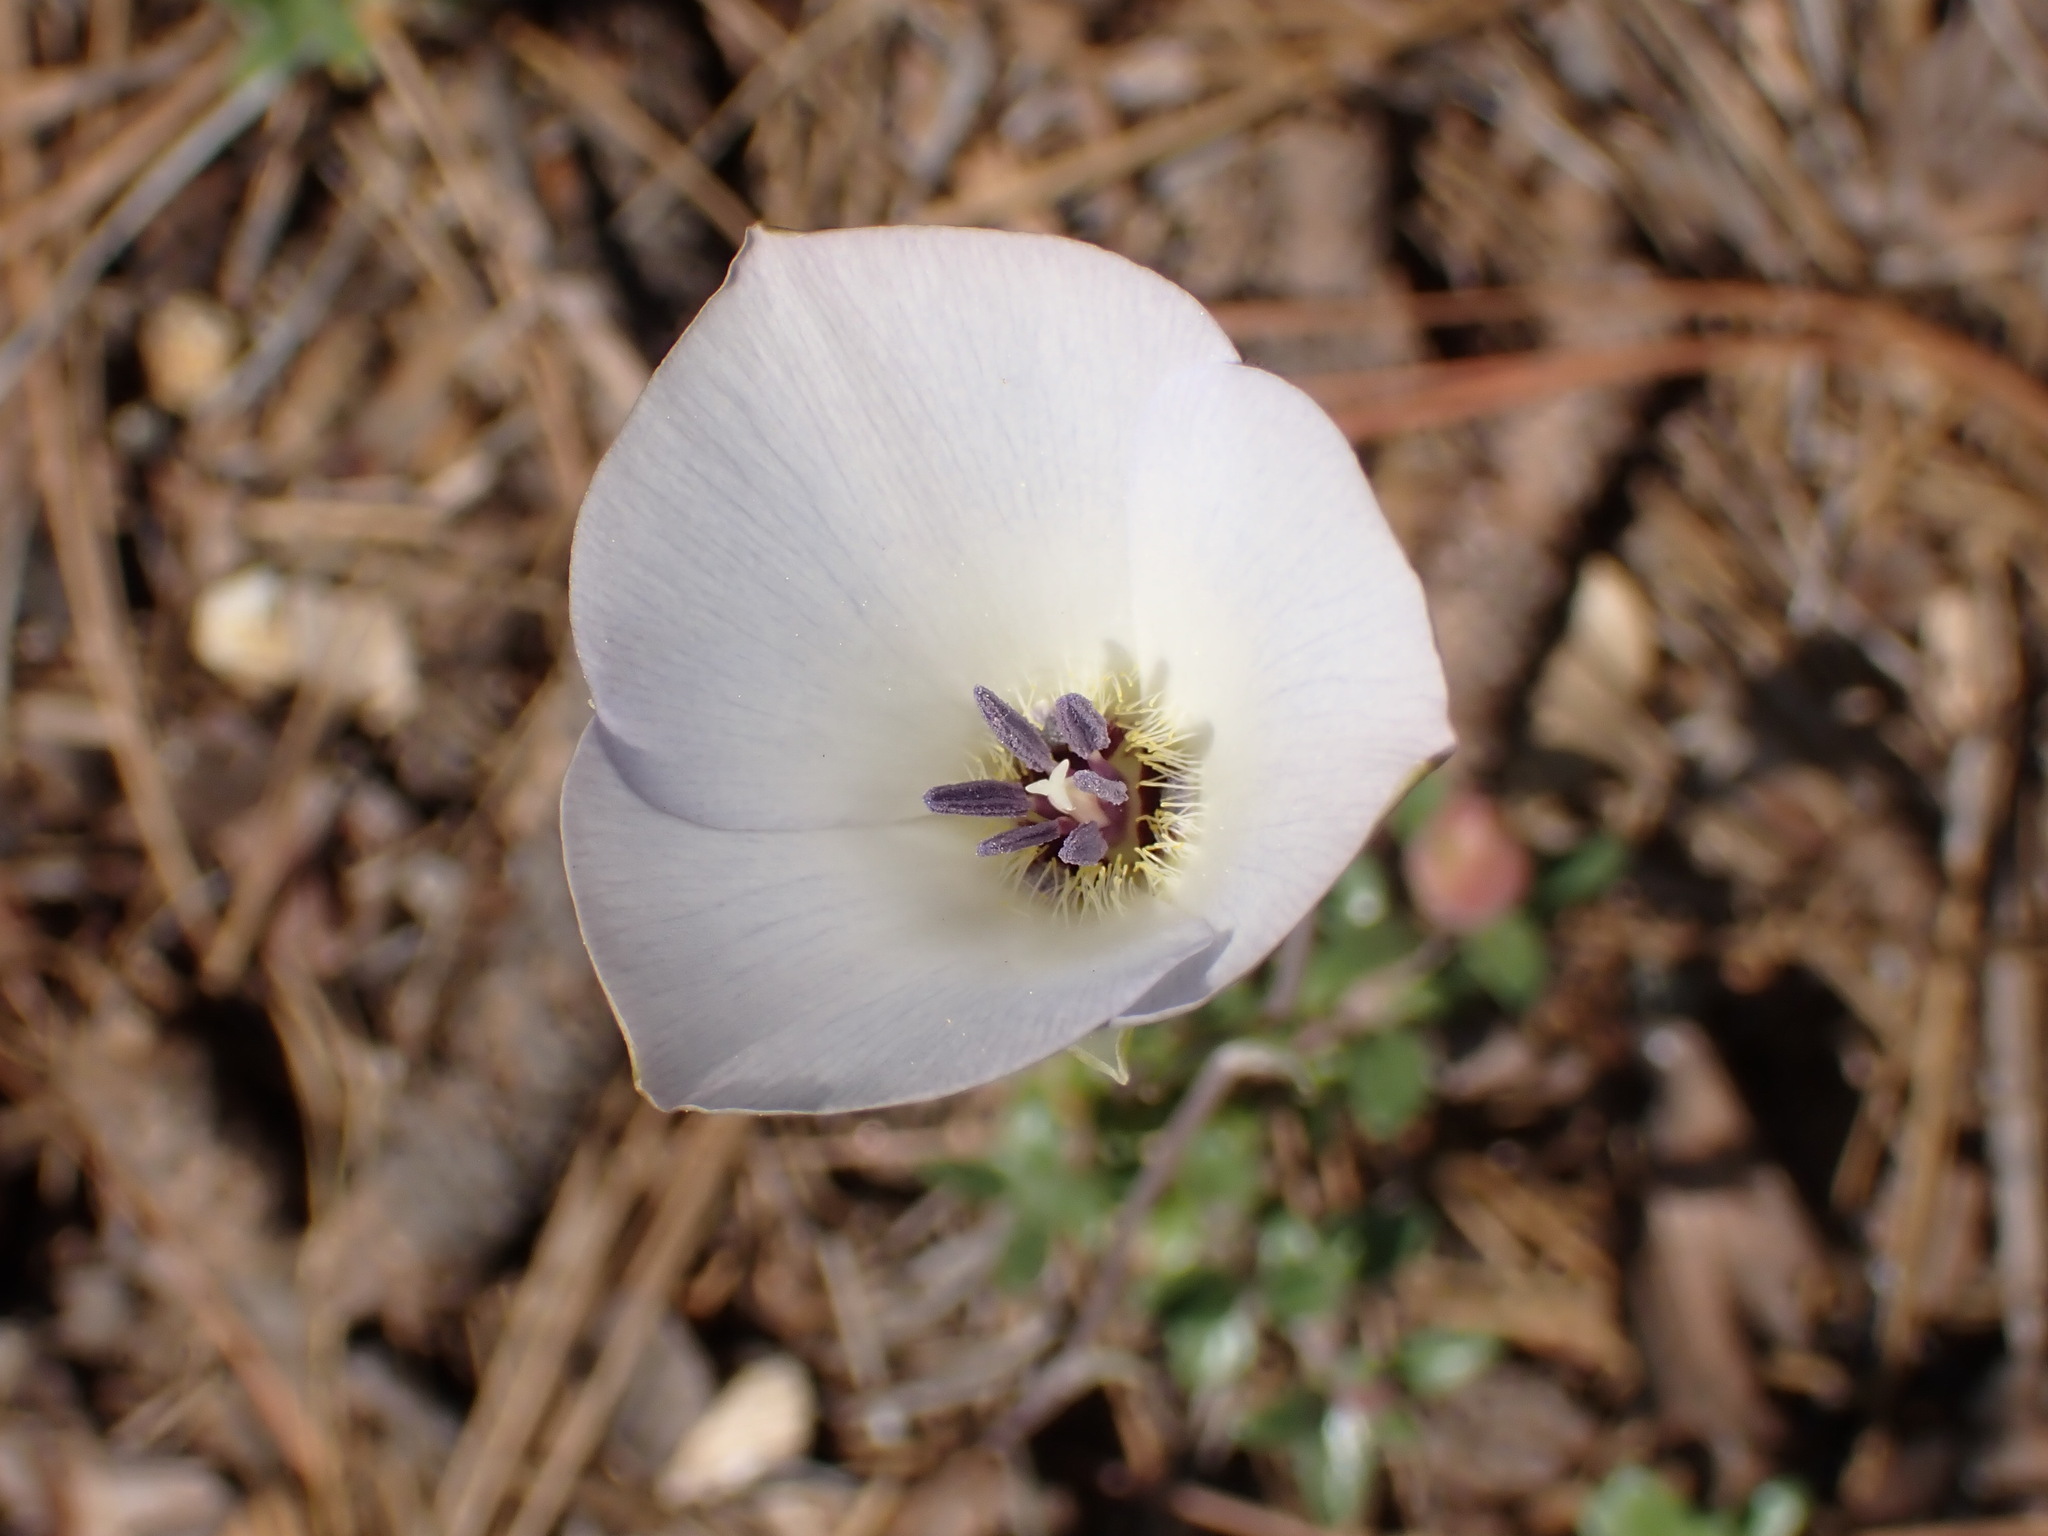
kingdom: Plantae
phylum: Tracheophyta
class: Liliopsida
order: Liliales
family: Liliaceae
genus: Calochortus
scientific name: Calochortus invenustus
